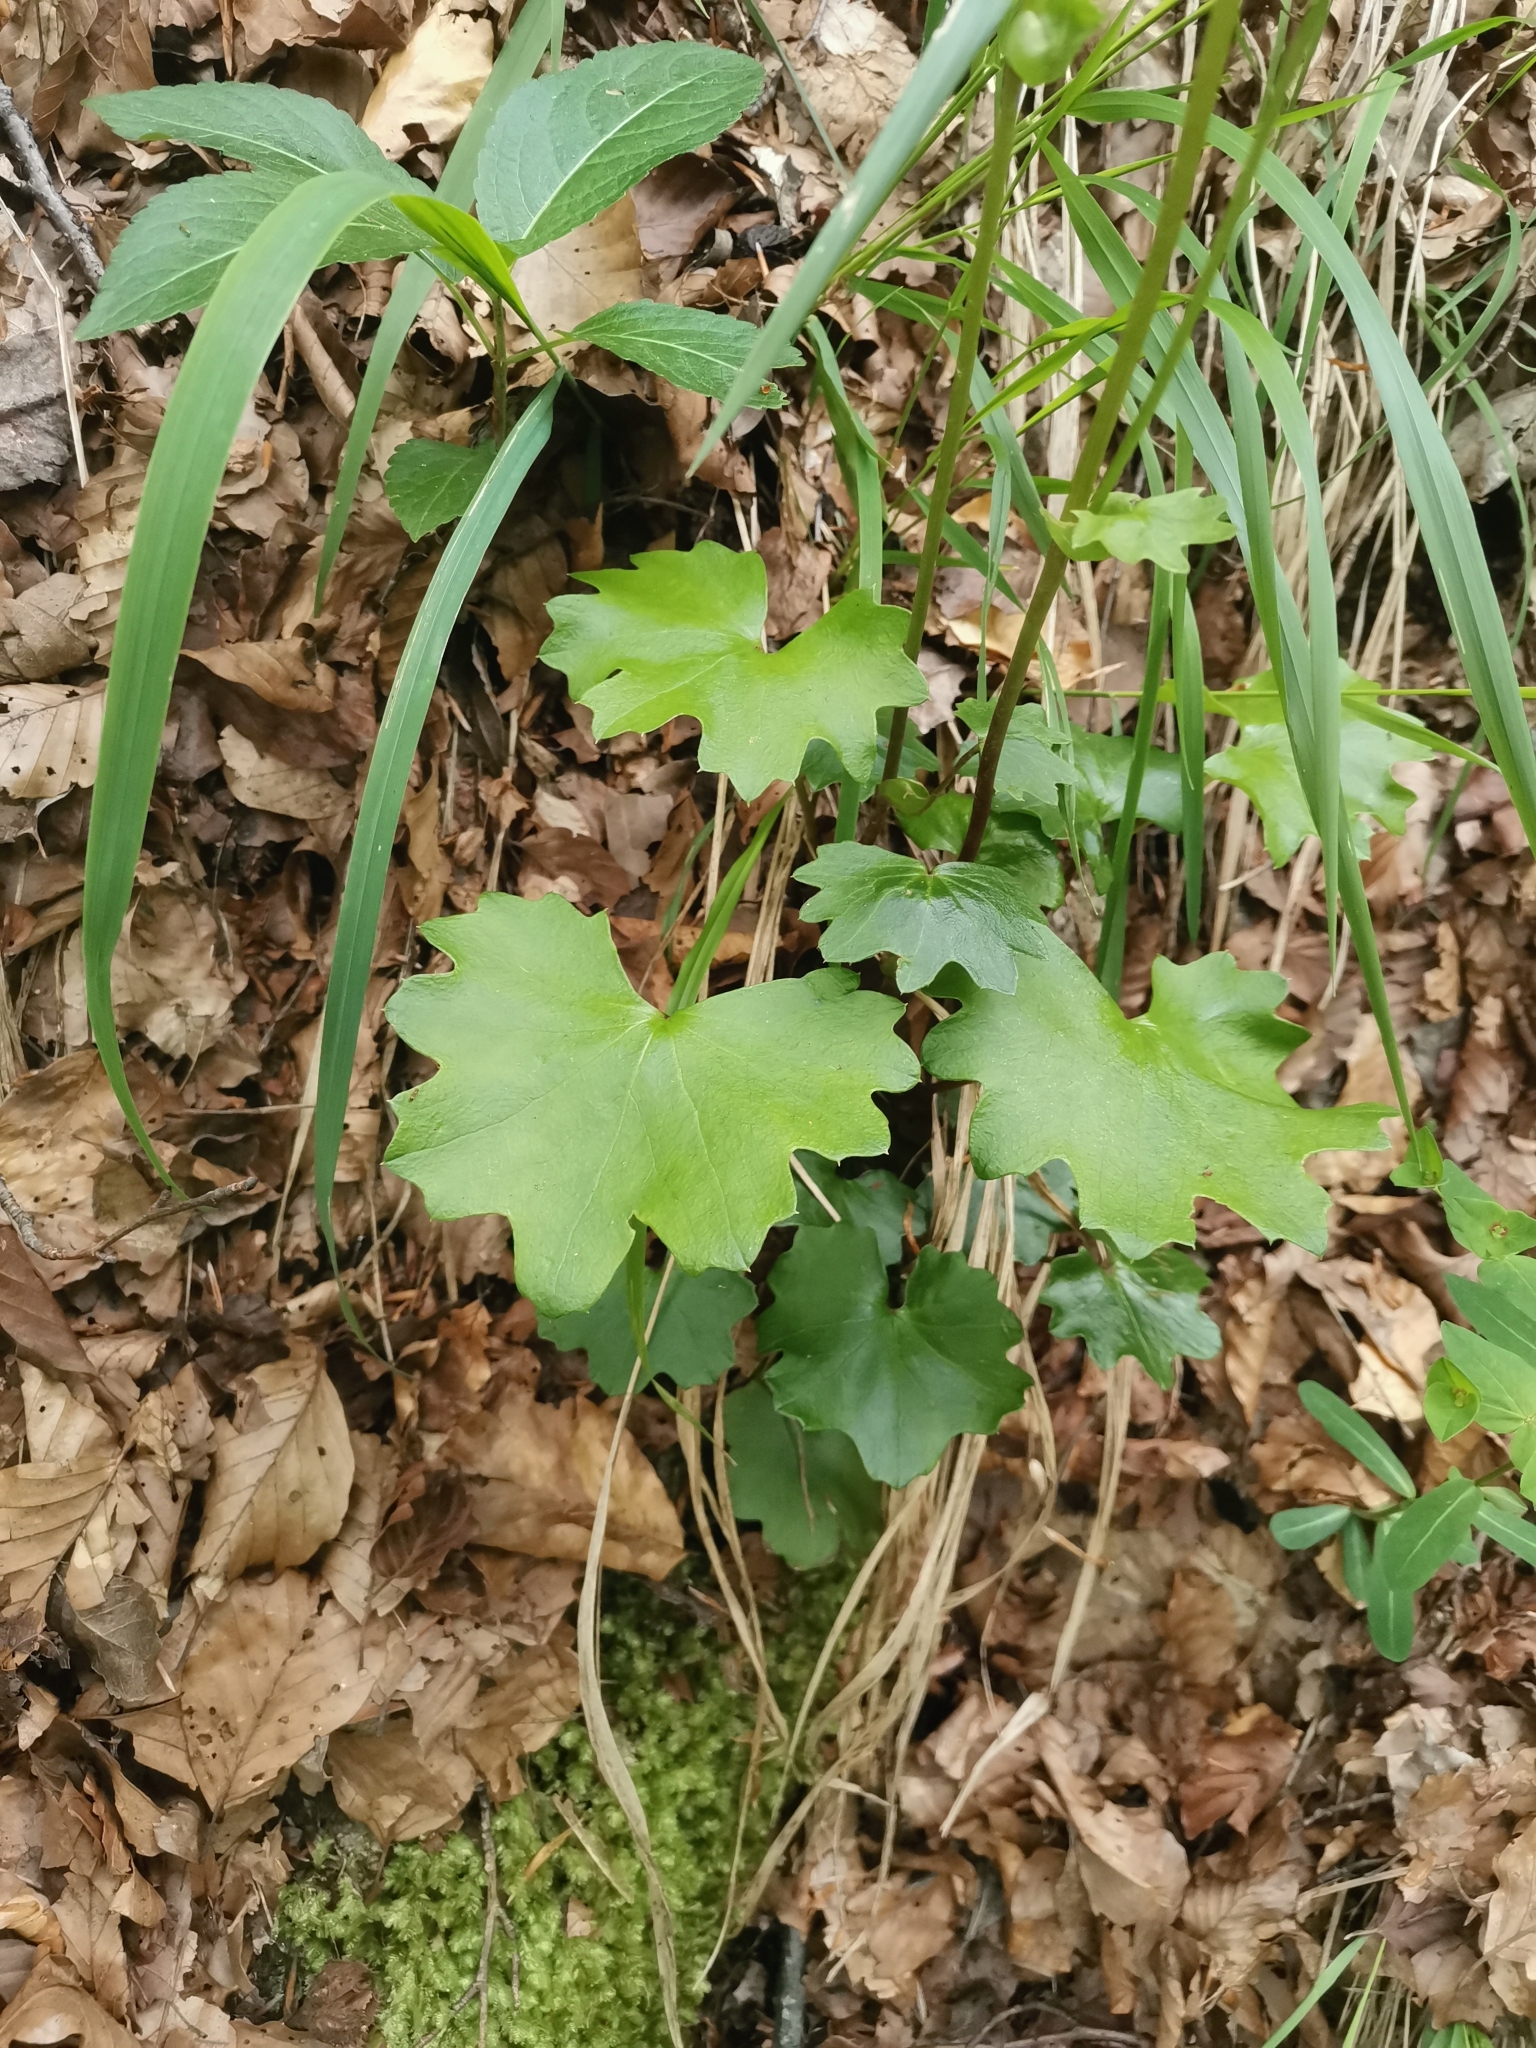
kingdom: Plantae
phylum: Tracheophyta
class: Magnoliopsida
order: Asterales
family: Asteraceae
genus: Homogyne
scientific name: Homogyne sylvestris
